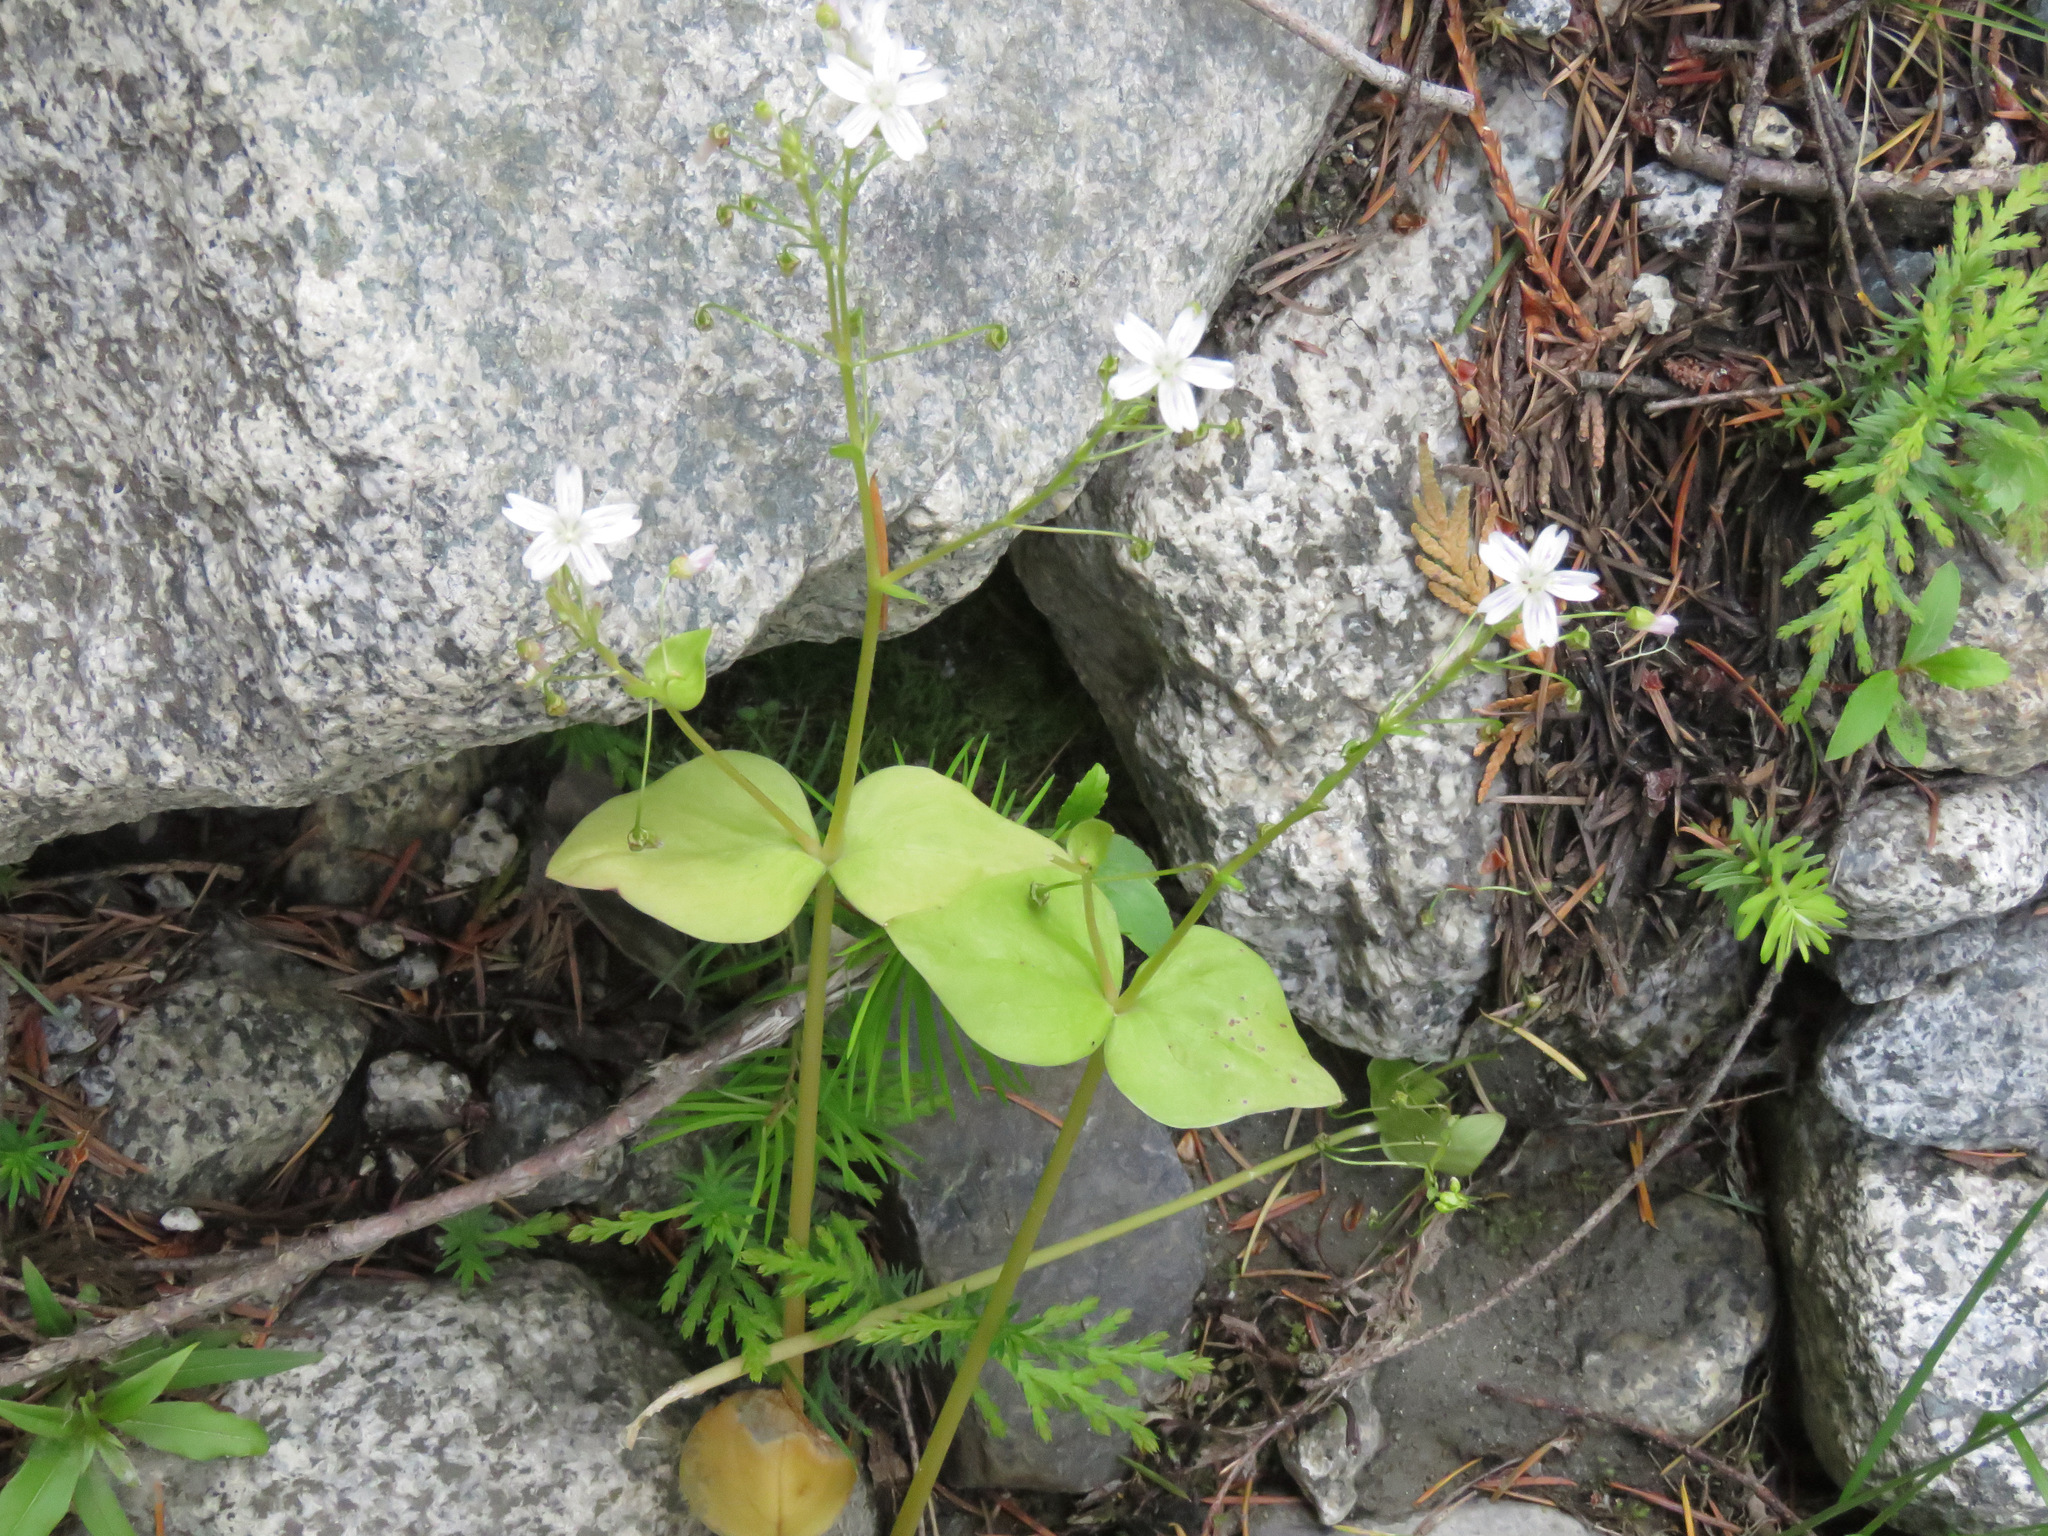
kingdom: Plantae
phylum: Tracheophyta
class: Magnoliopsida
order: Caryophyllales
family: Montiaceae
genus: Claytonia
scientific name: Claytonia sibirica
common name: Pink purslane
